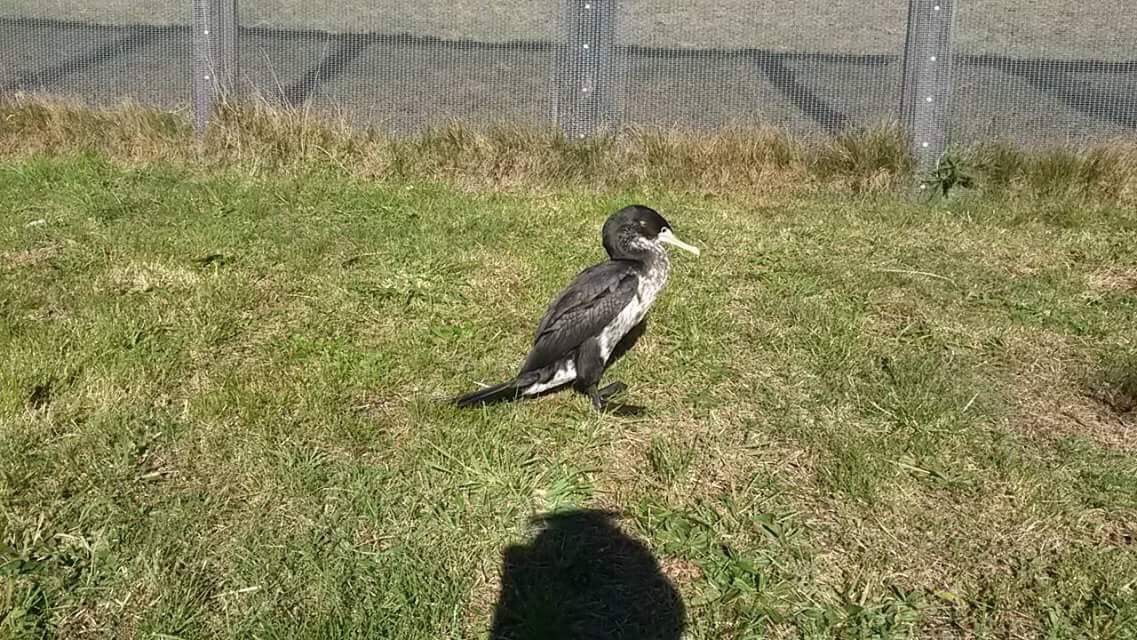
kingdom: Animalia
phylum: Chordata
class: Aves
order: Suliformes
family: Phalacrocoracidae
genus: Phalacrocorax
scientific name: Phalacrocorax varius
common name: Pied cormorant
